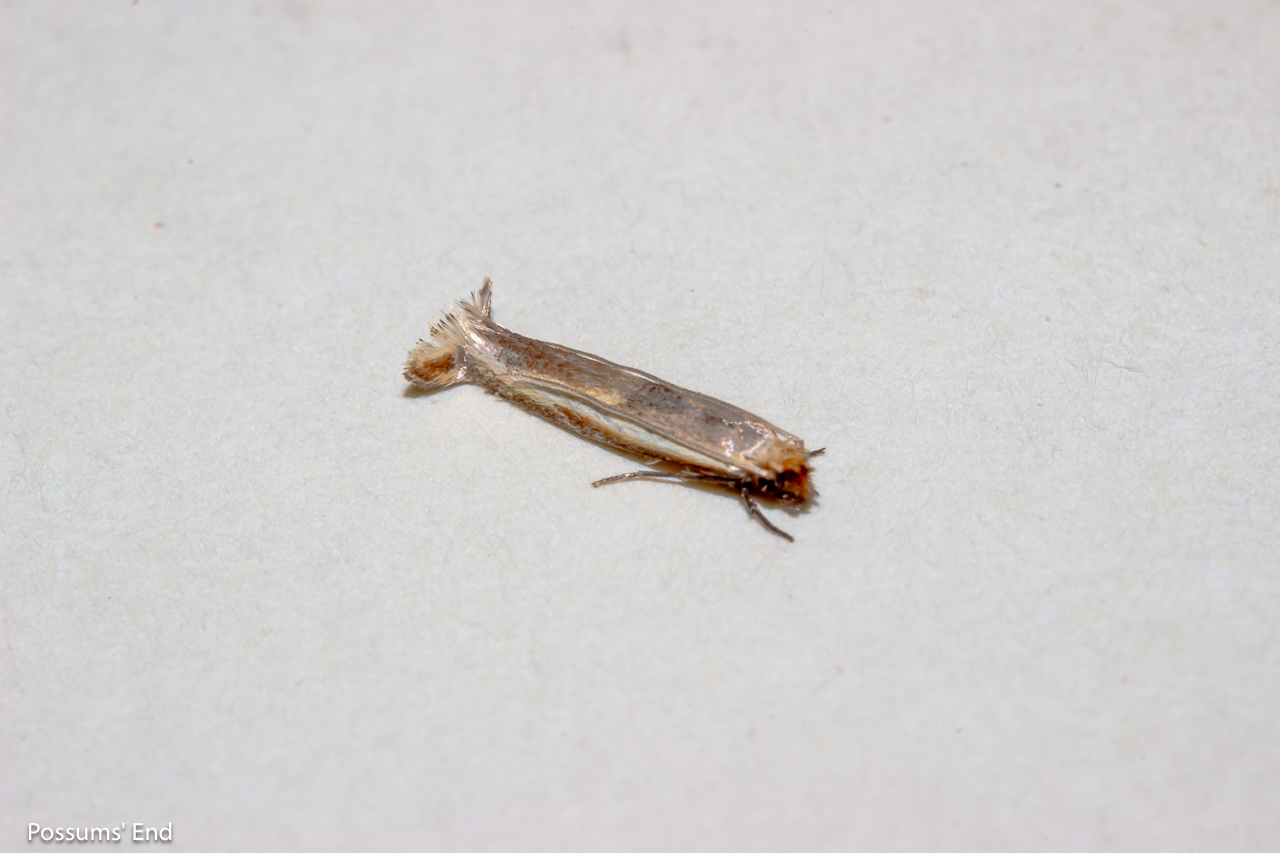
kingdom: Animalia
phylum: Arthropoda
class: Insecta
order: Lepidoptera
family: Tineidae
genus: Erechthias
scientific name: Erechthias charadrota
